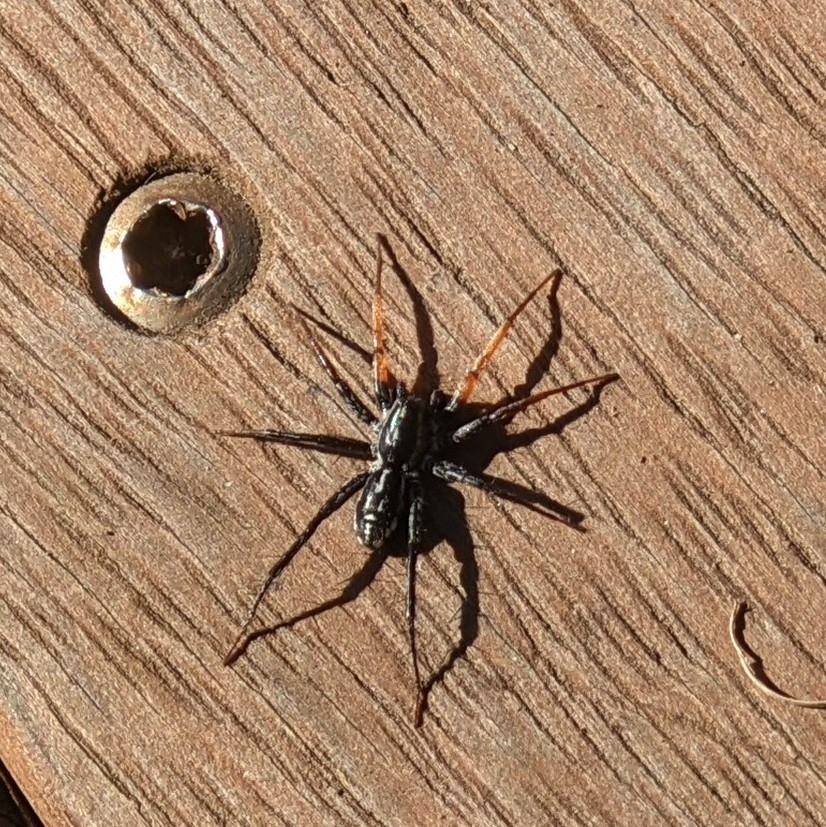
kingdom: Animalia
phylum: Arthropoda
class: Arachnida
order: Araneae
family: Corinnidae
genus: Nyssus
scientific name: Nyssus coloripes
